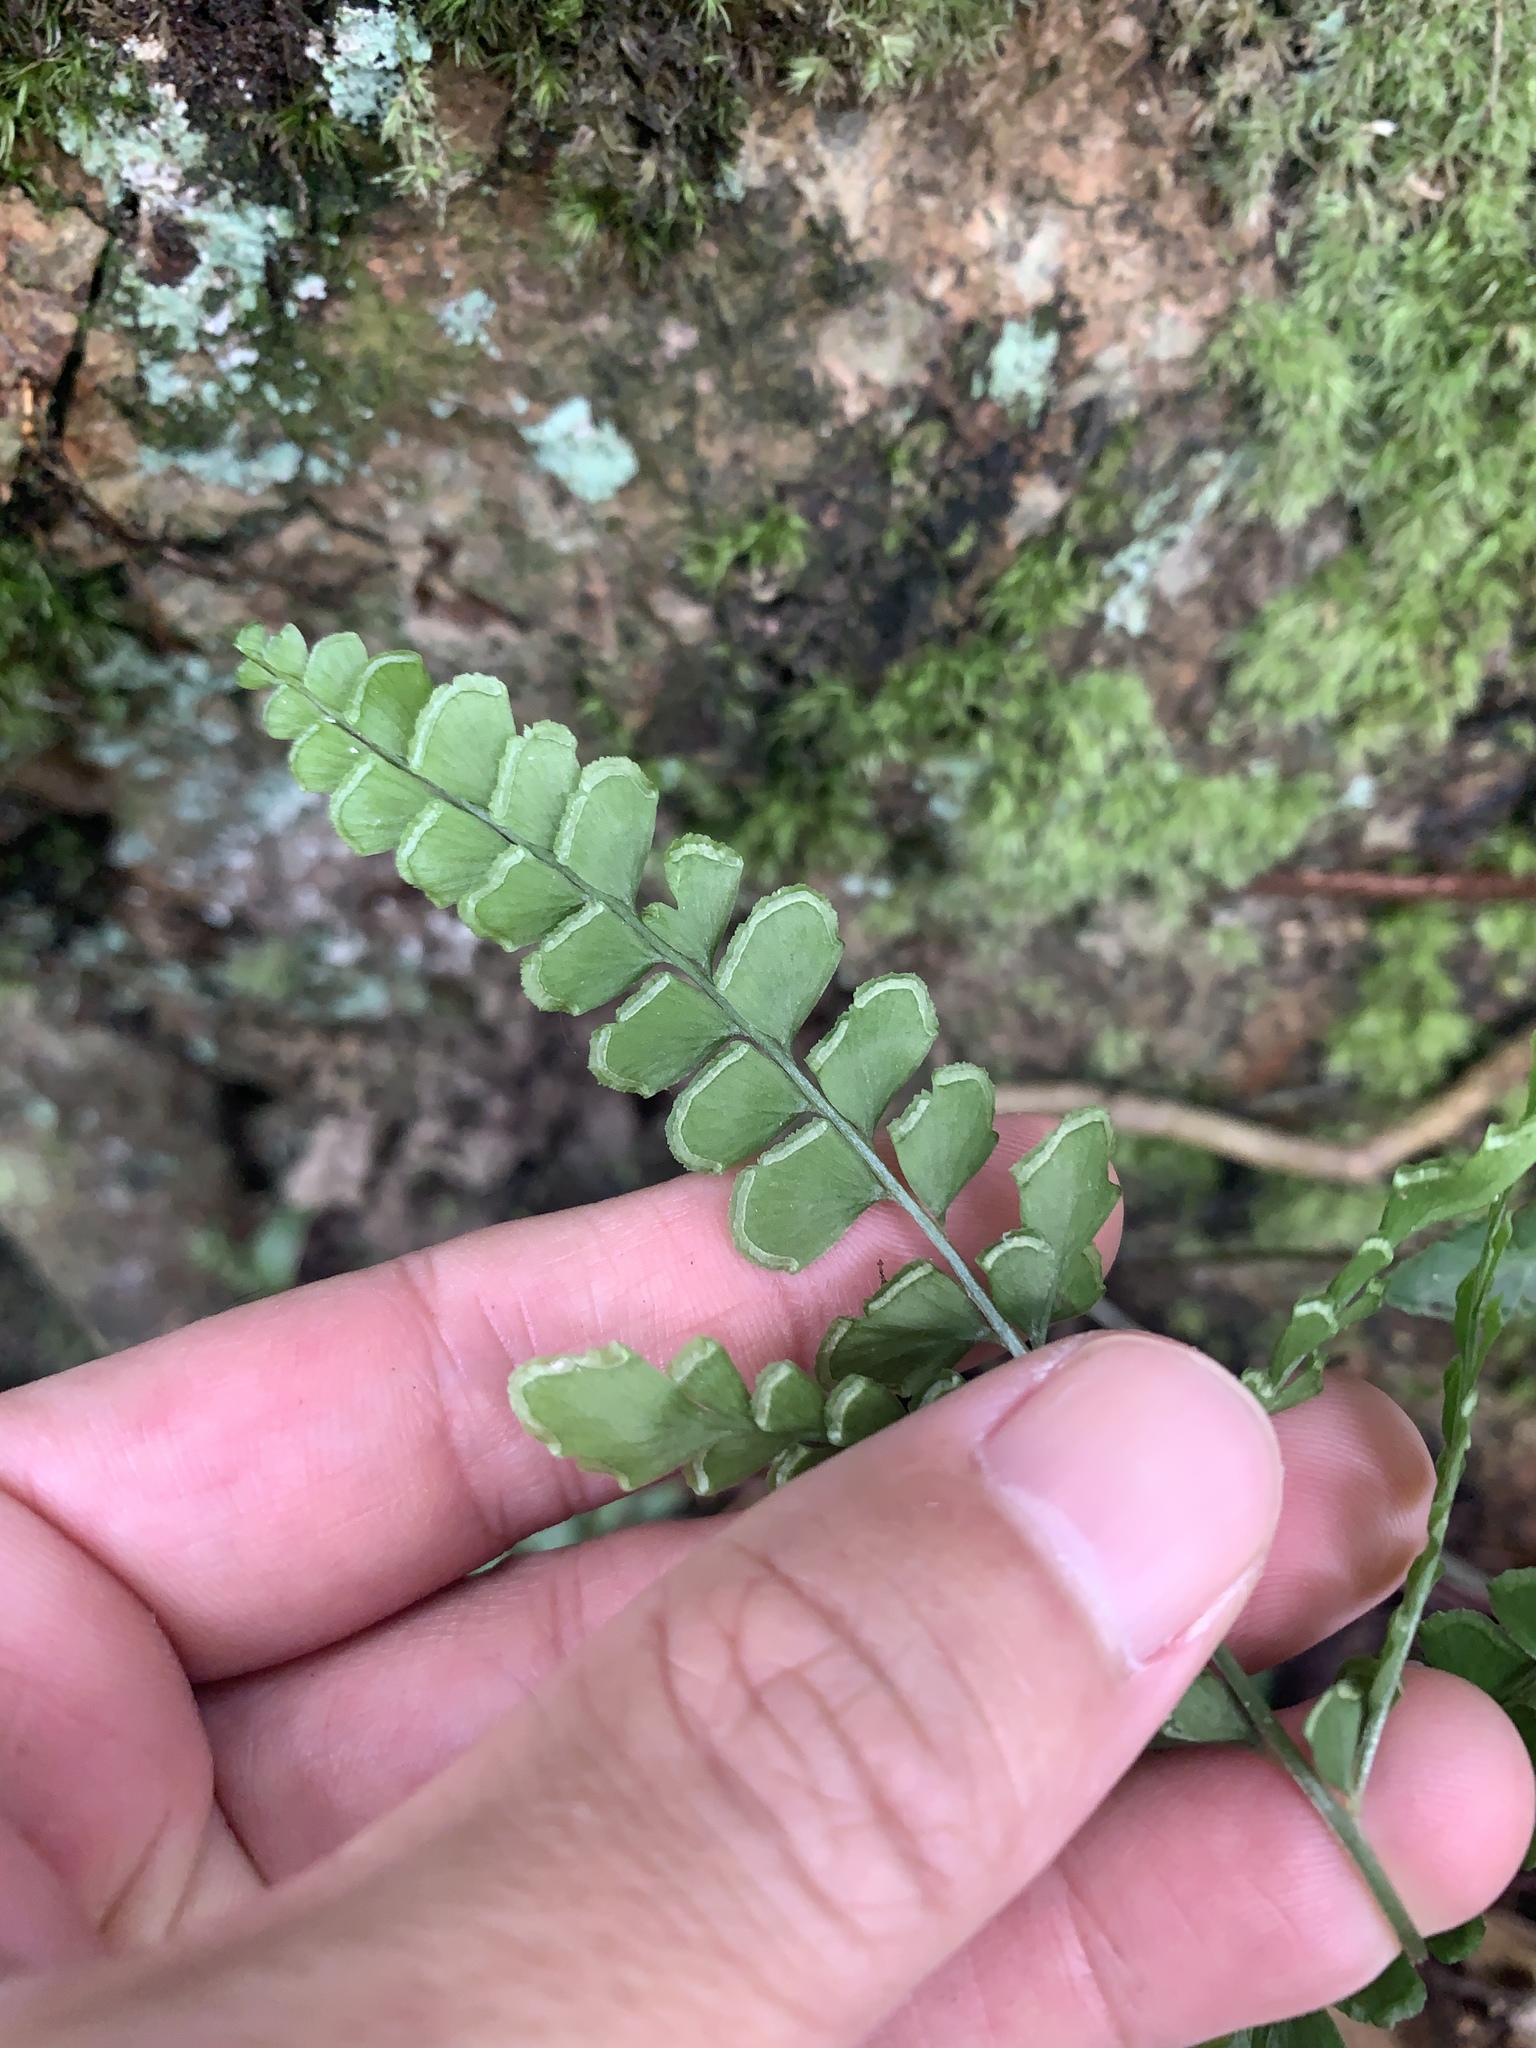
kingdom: Plantae
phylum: Tracheophyta
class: Polypodiopsida
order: Polypodiales
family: Lindsaeaceae
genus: Lindsaea
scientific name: Lindsaea bonii
